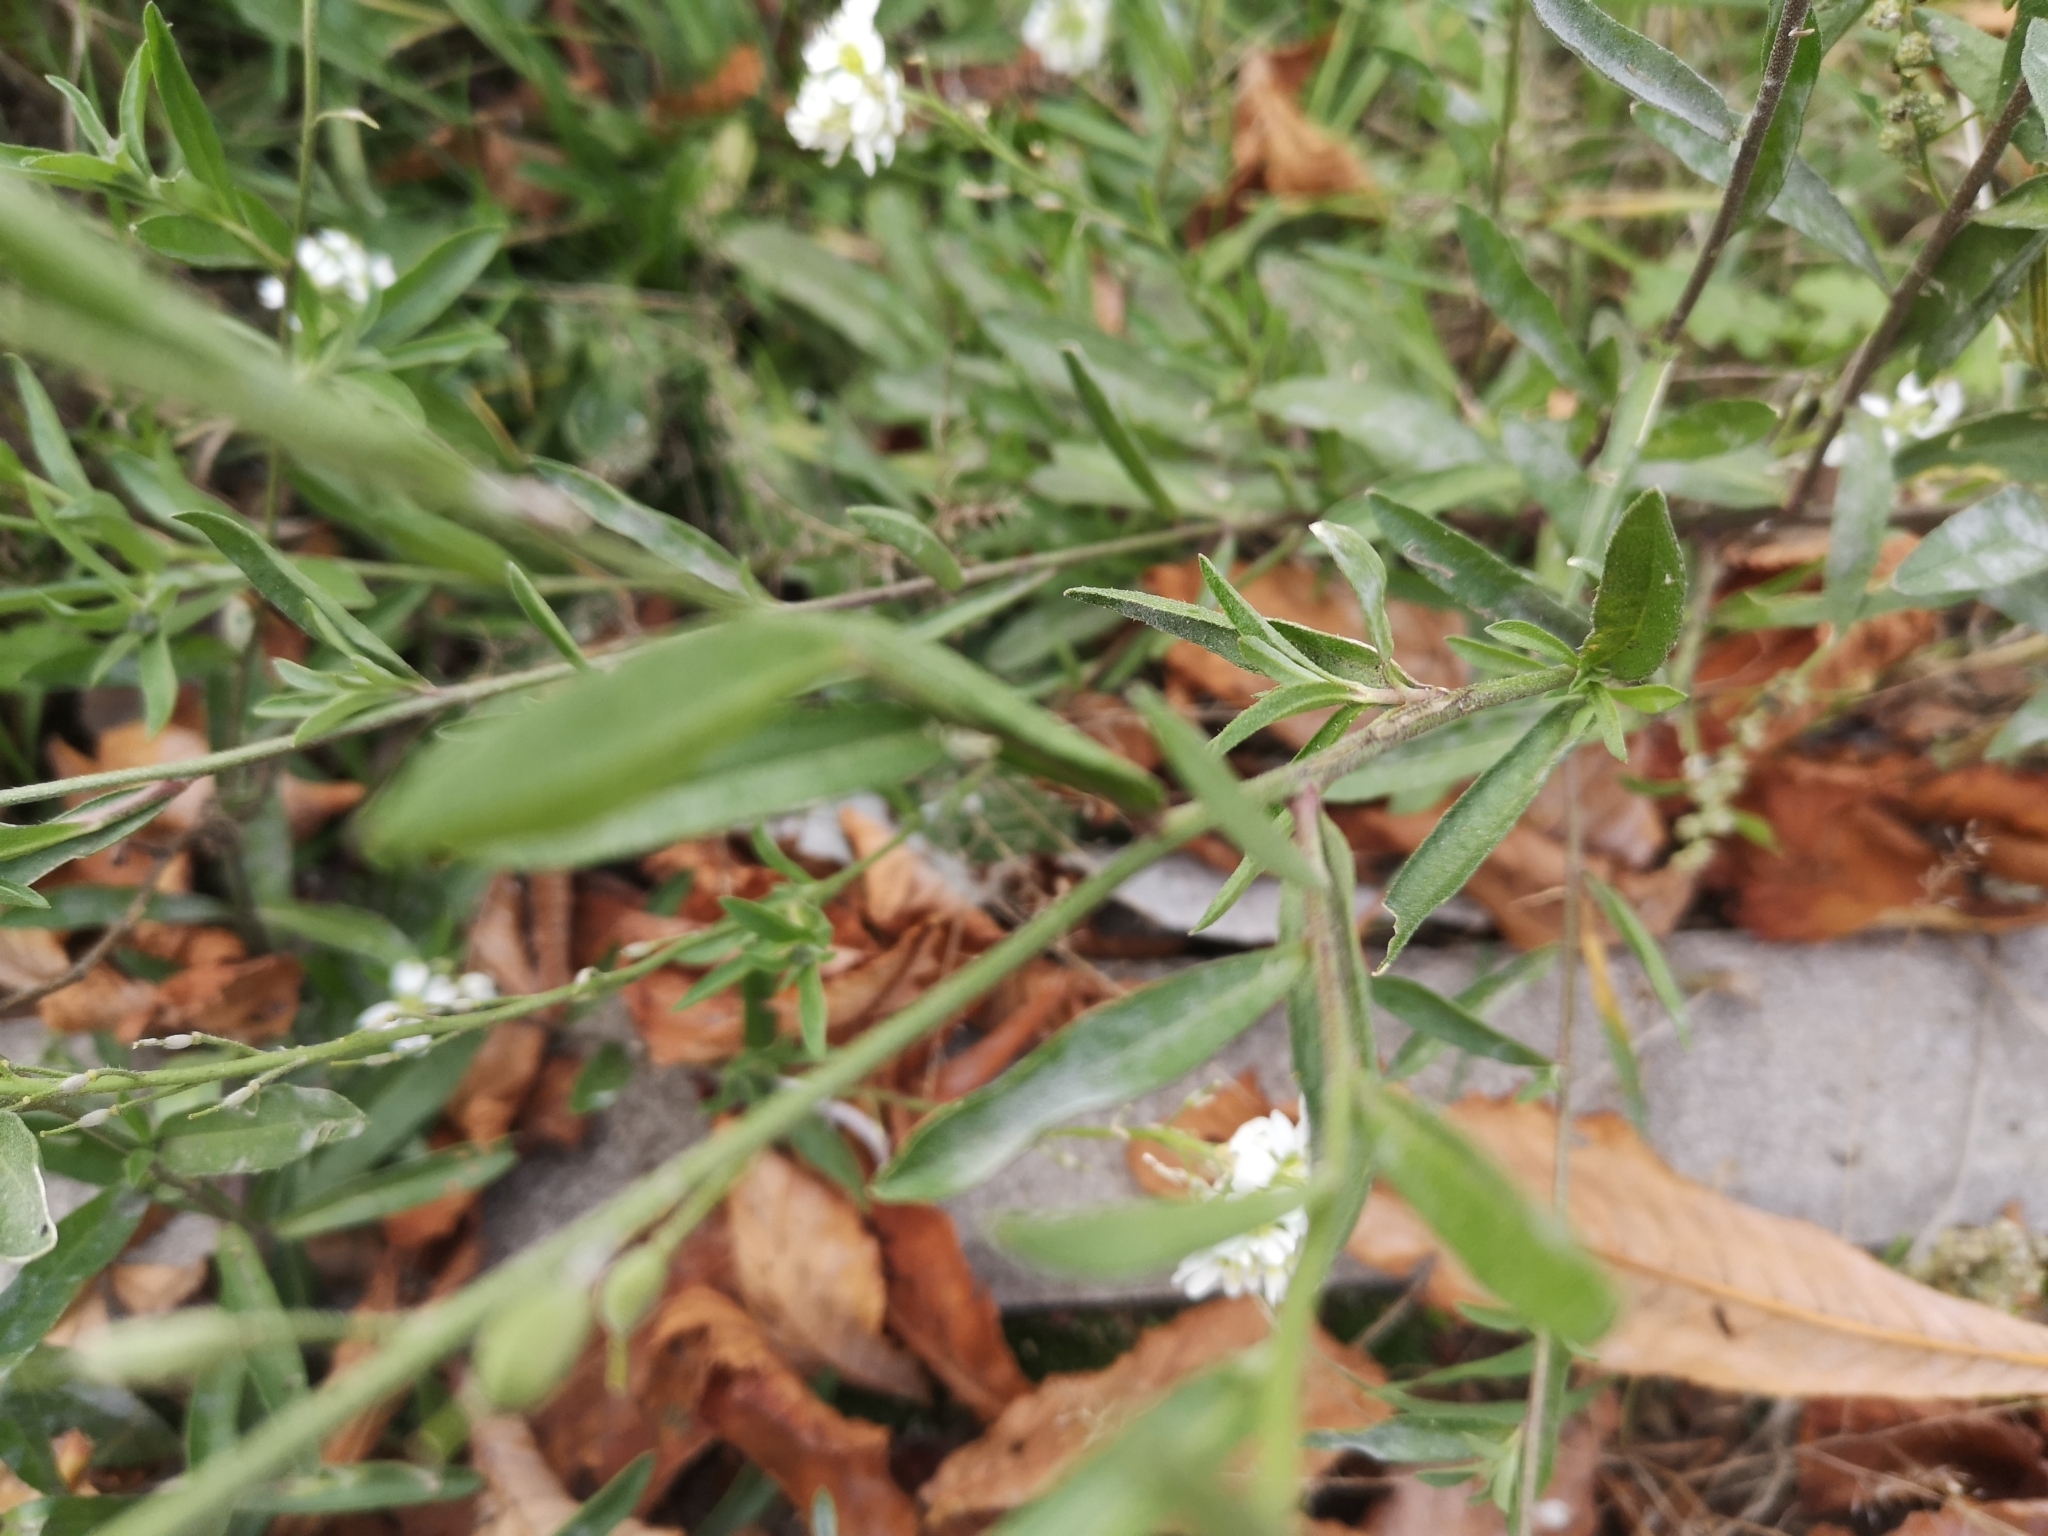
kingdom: Plantae
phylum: Tracheophyta
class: Magnoliopsida
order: Brassicales
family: Brassicaceae
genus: Berteroa
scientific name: Berteroa incana
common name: Hoary alison
